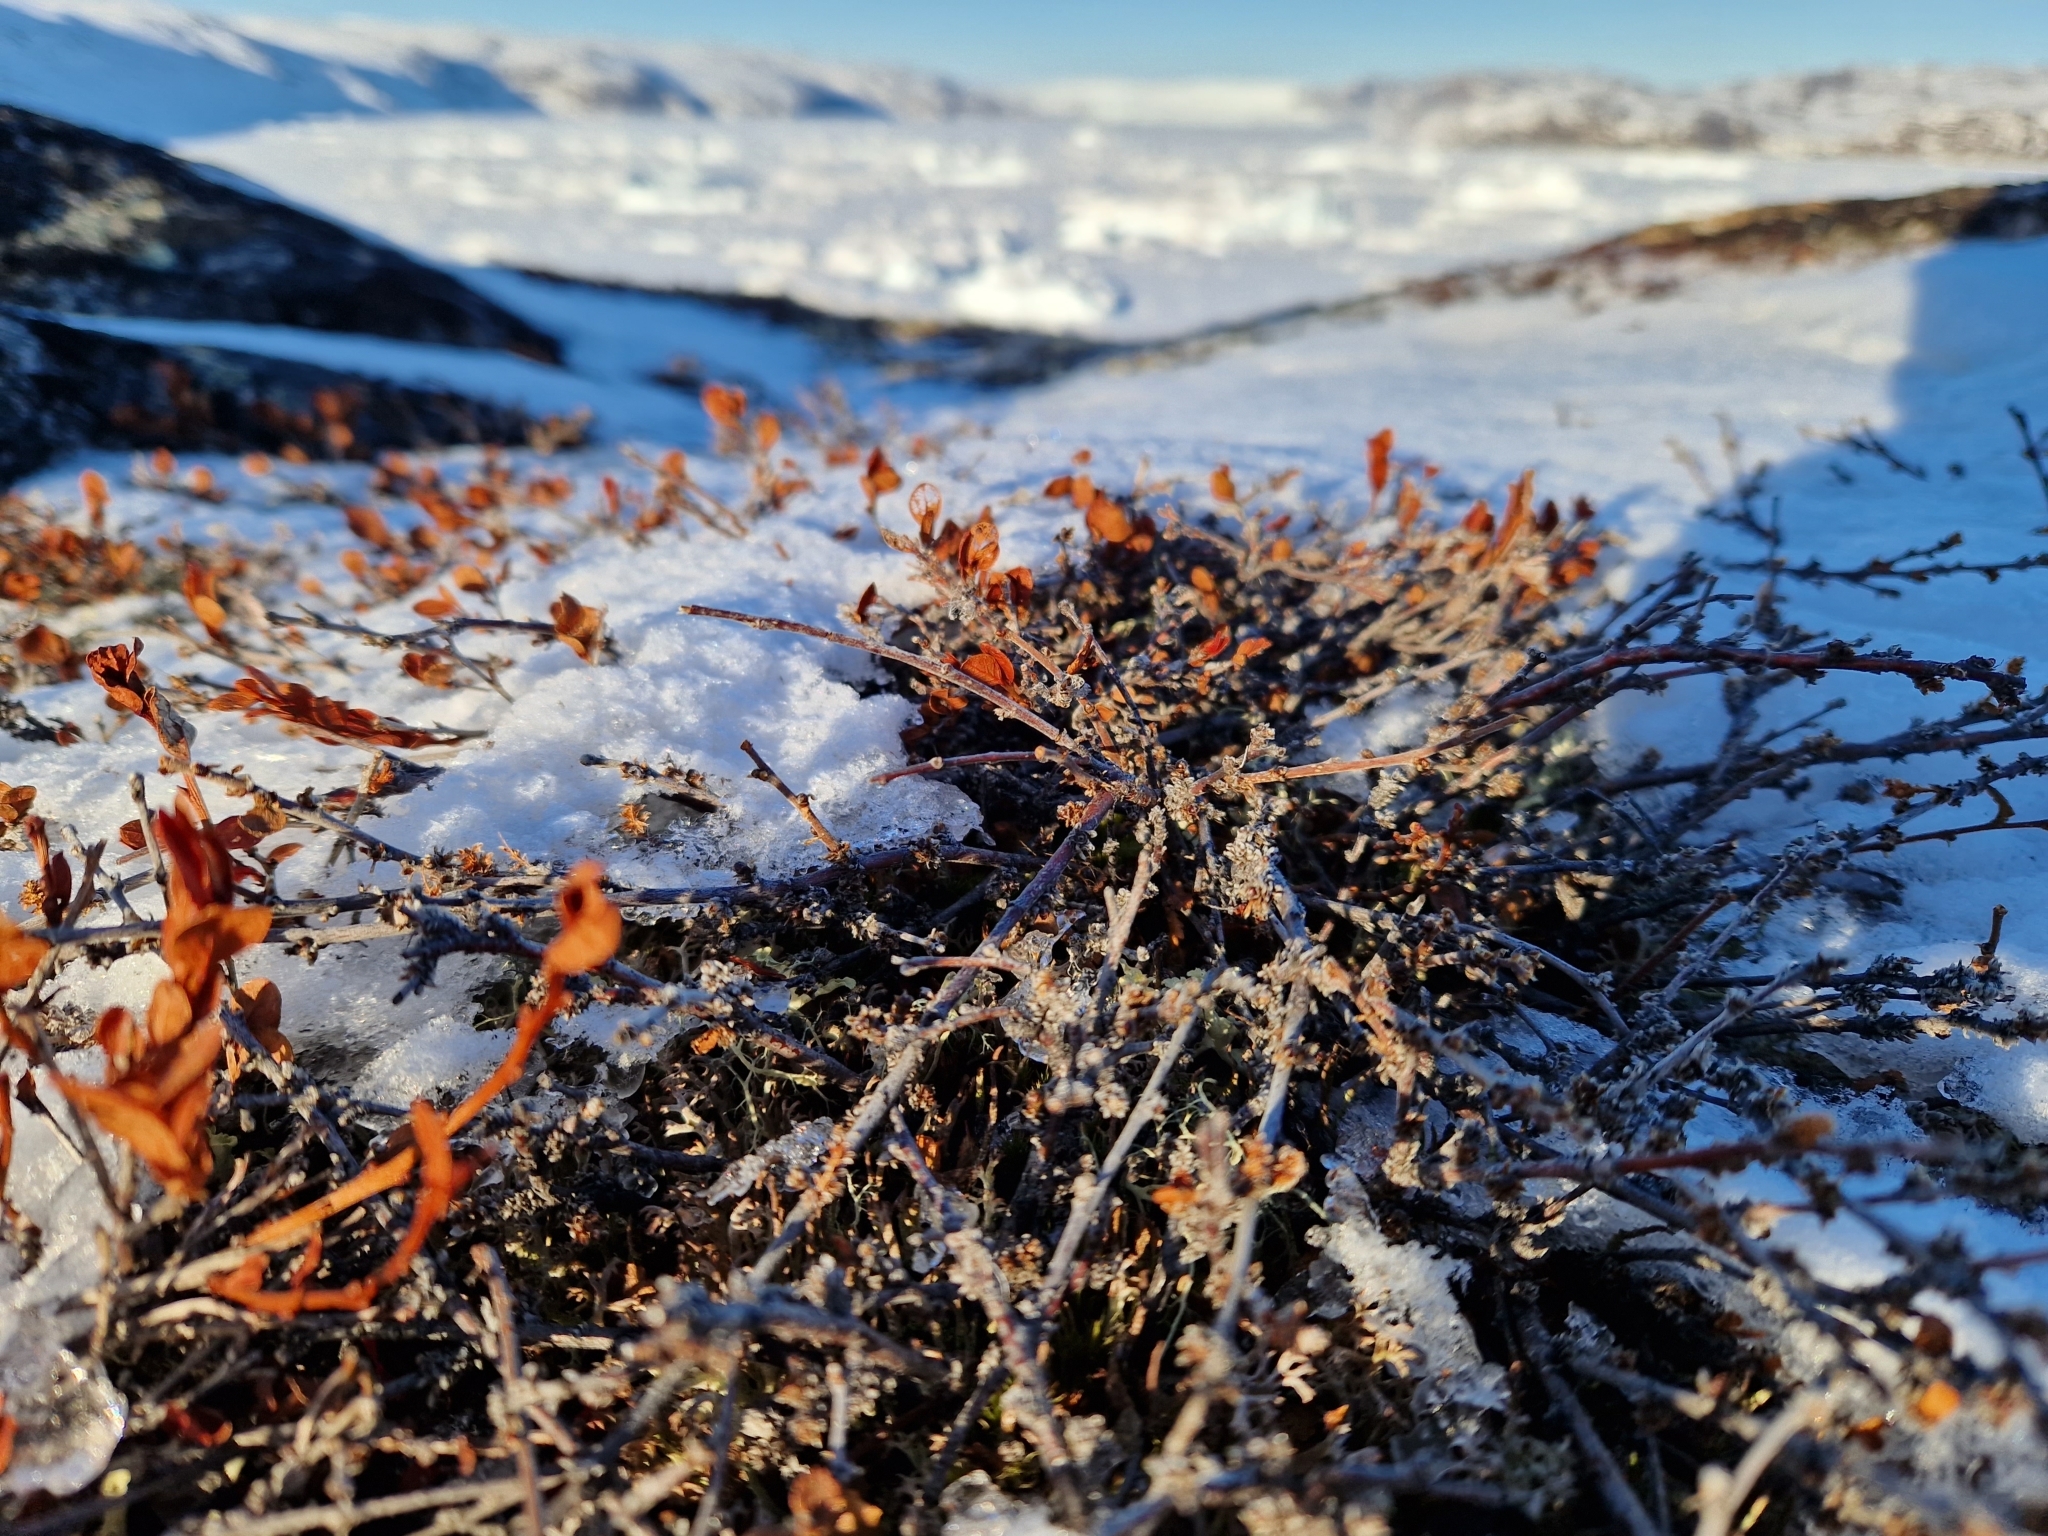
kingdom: Plantae
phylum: Tracheophyta
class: Magnoliopsida
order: Fagales
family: Betulaceae
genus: Betula
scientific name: Betula nana
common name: Arctic dwarf birch
